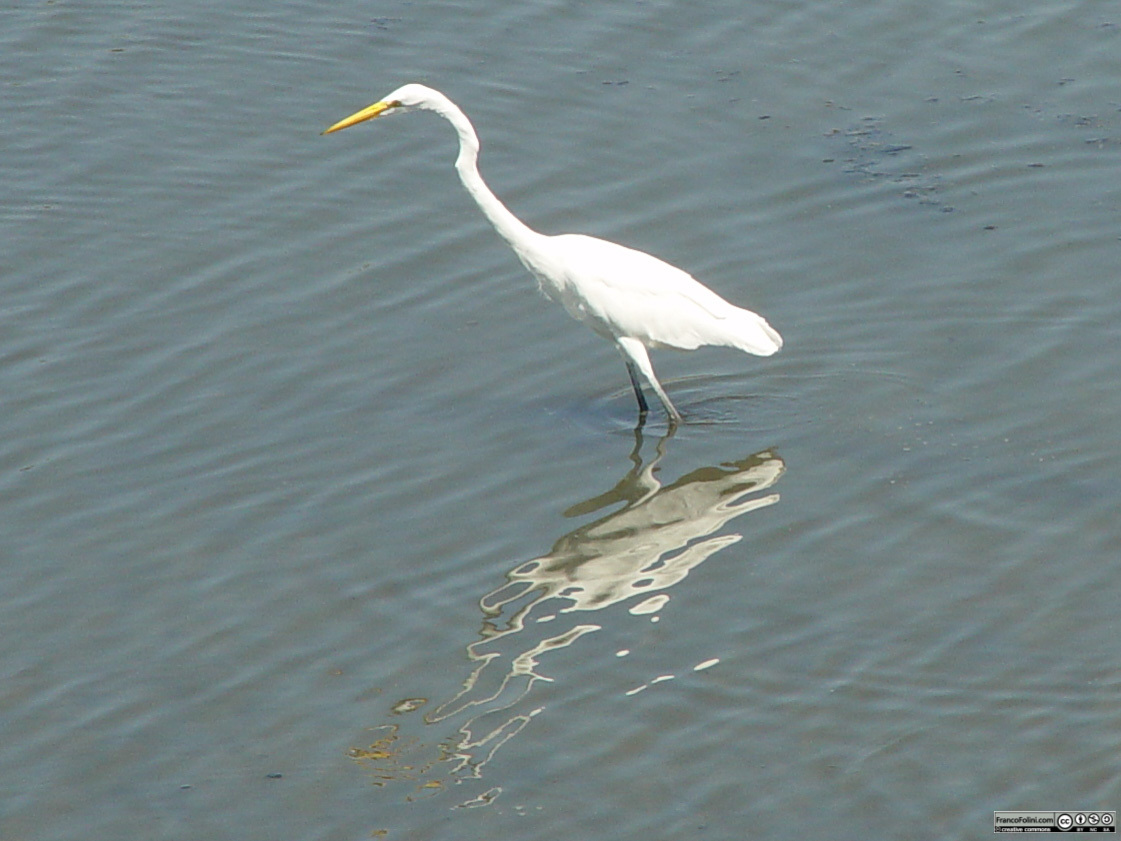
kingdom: Animalia
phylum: Chordata
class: Aves
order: Pelecaniformes
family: Ardeidae
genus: Ardea
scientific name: Ardea alba
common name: Great egret
